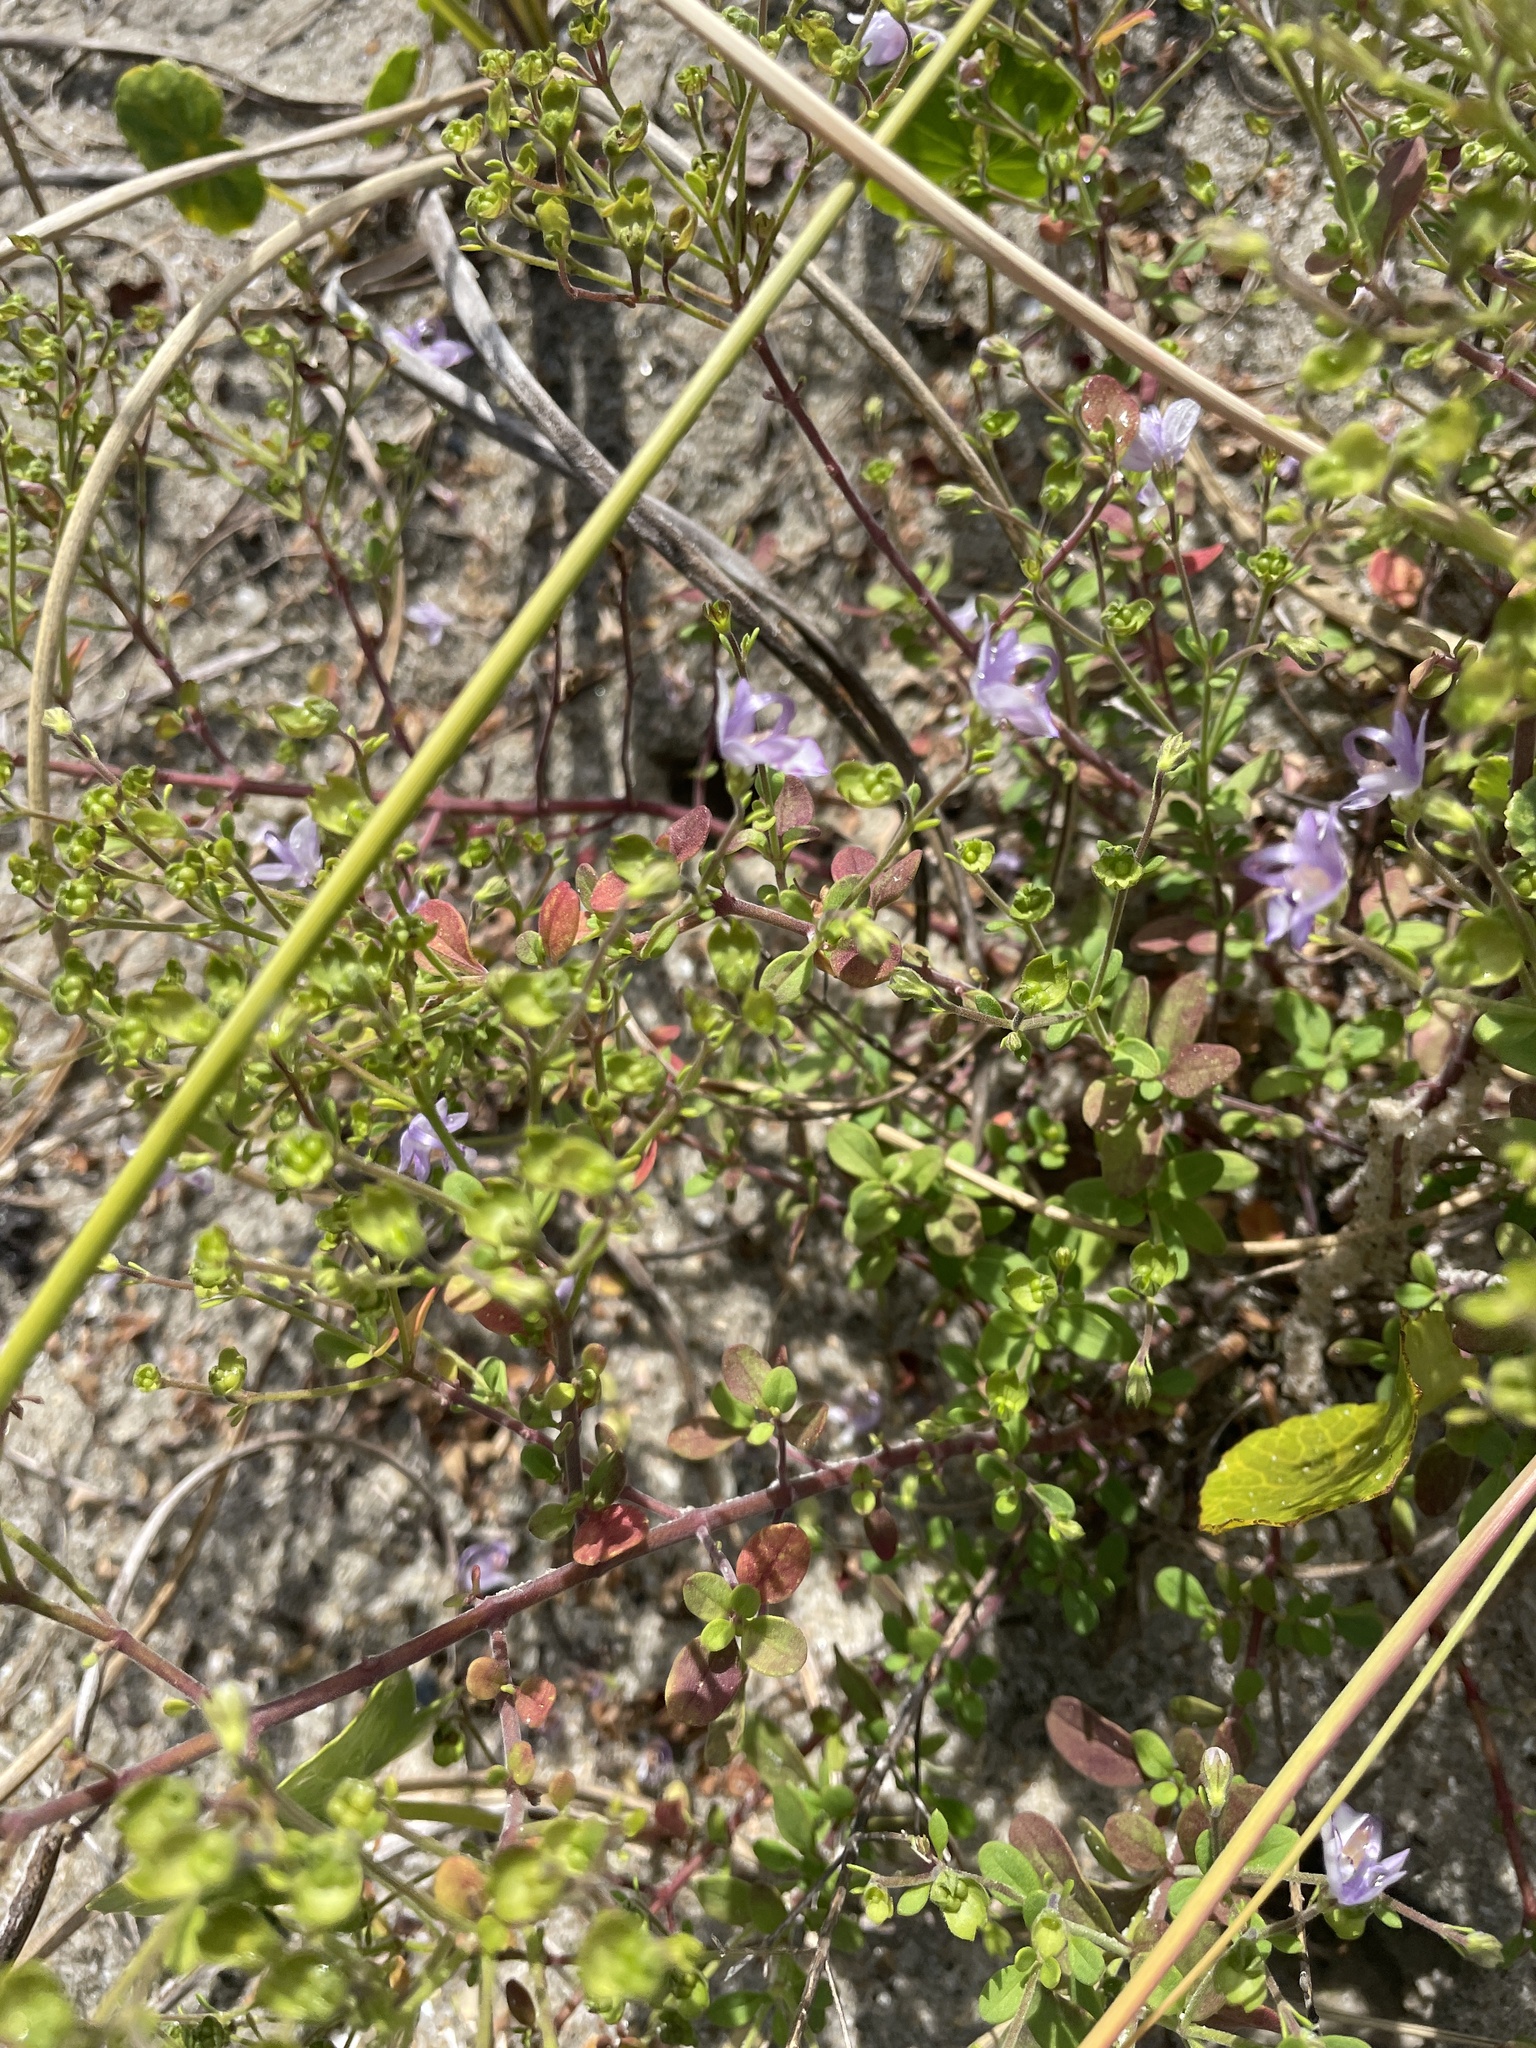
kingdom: Plantae
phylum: Tracheophyta
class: Magnoliopsida
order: Lamiales
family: Lamiaceae
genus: Trichostema
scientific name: Trichostema nesophilum
